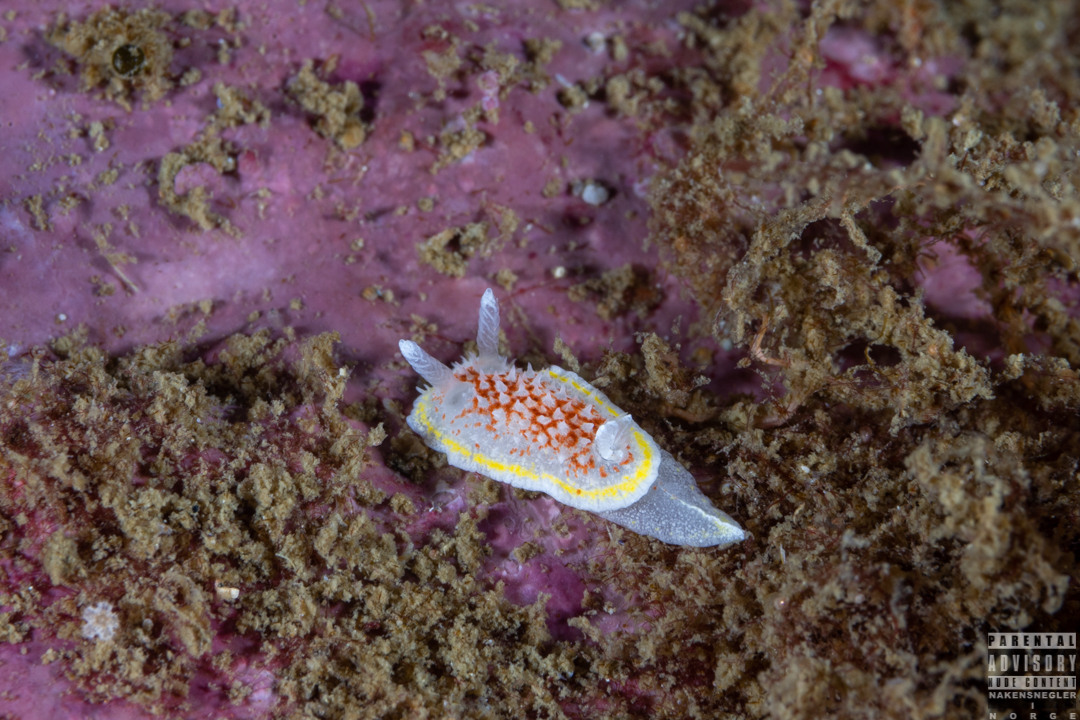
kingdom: Animalia
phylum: Mollusca
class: Gastropoda
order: Nudibranchia
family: Calycidorididae
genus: Diaphorodoris
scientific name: Diaphorodoris luteocincta
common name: Fried egg nudibranch
